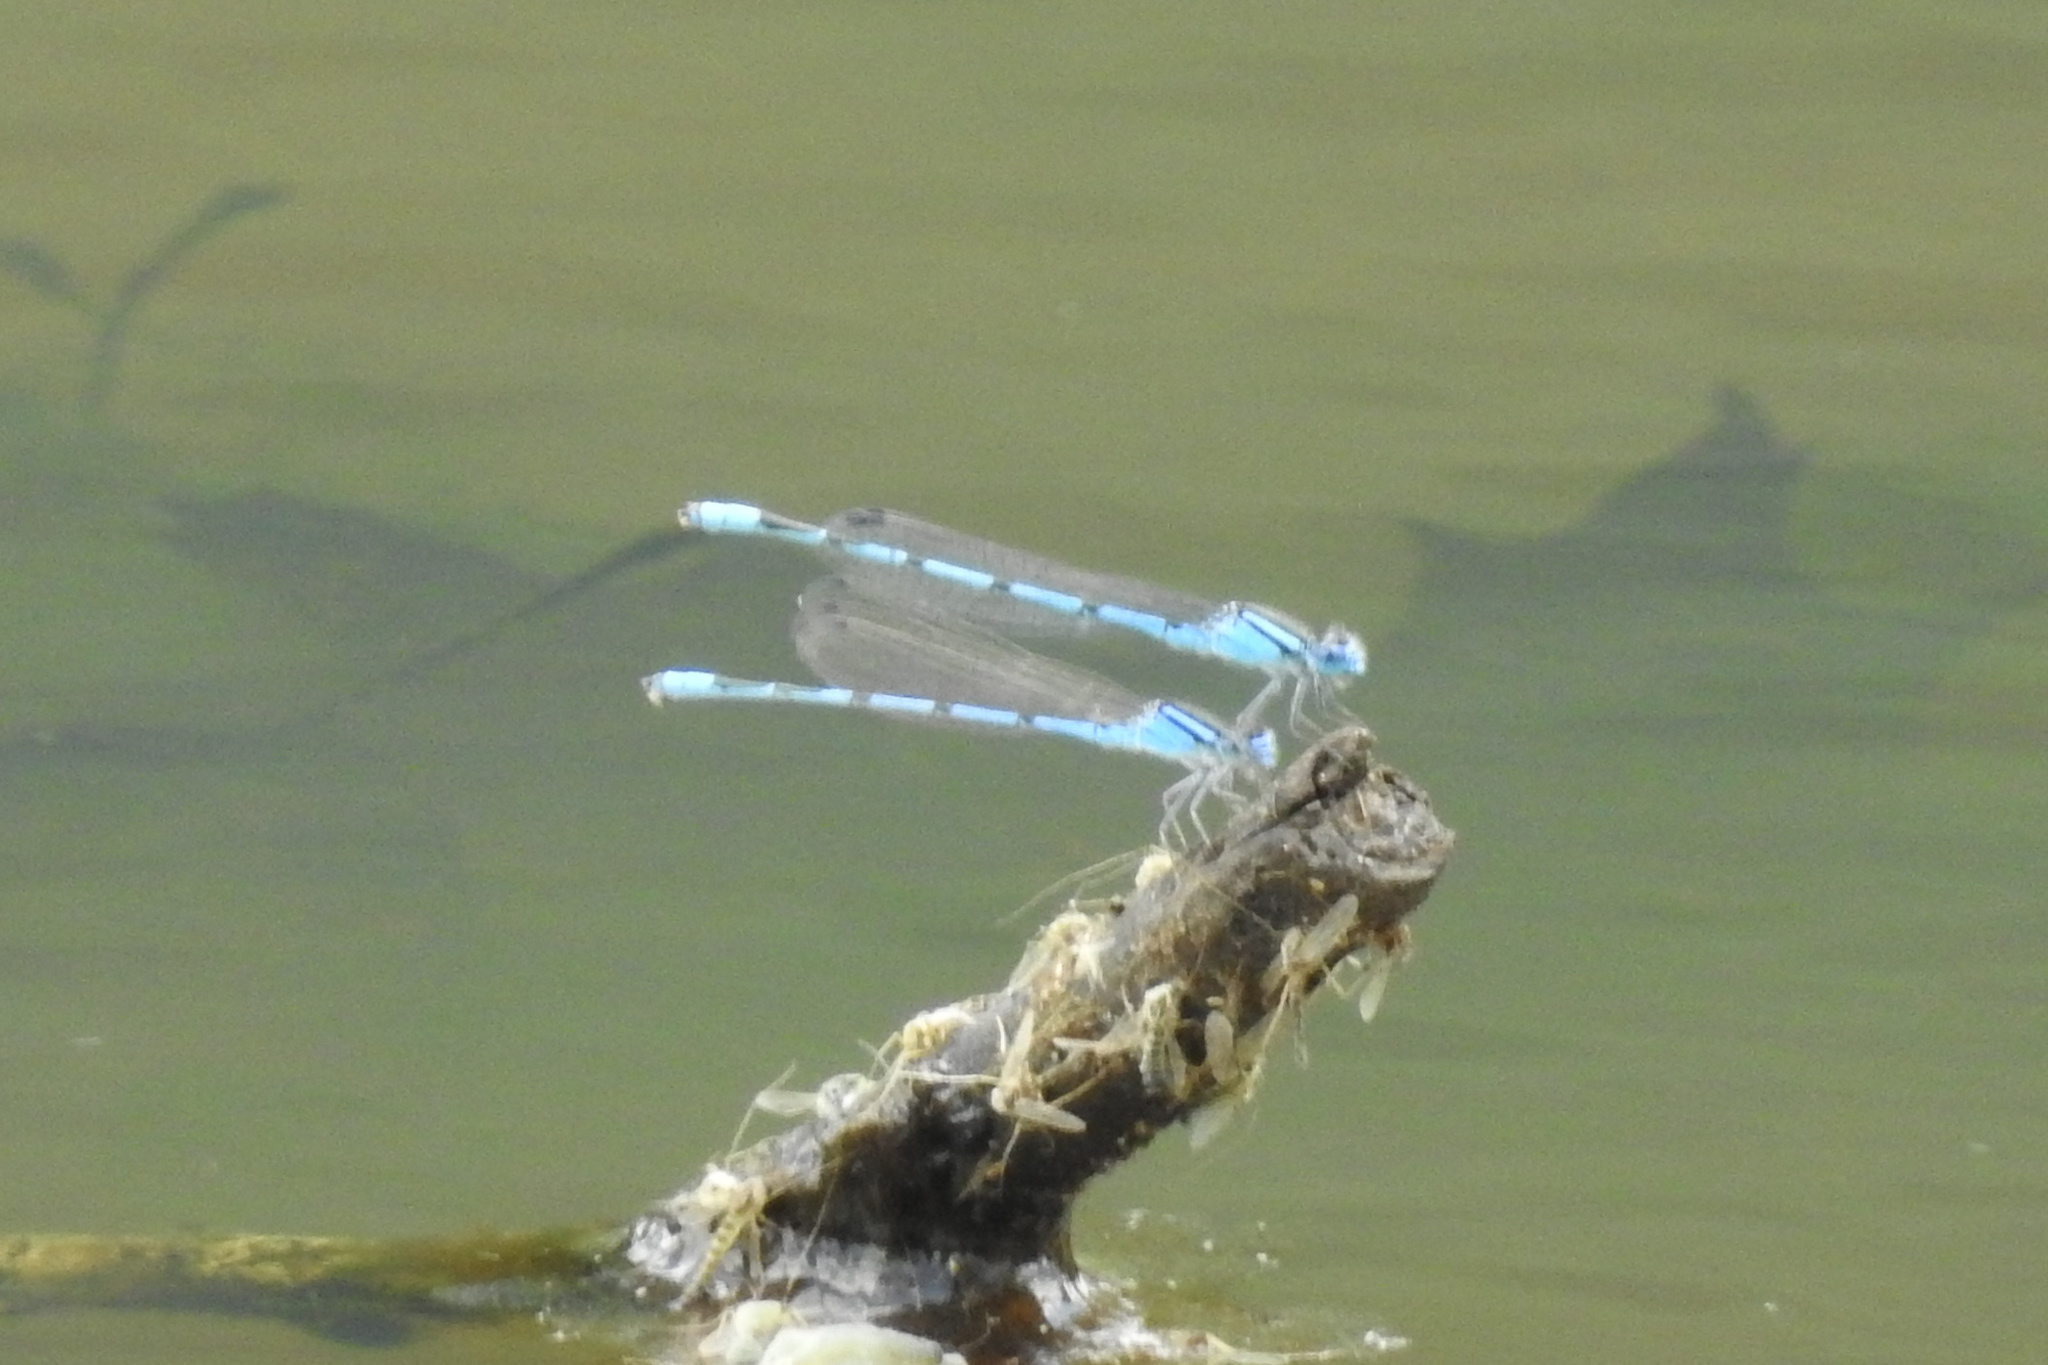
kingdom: Animalia
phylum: Arthropoda
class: Insecta
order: Odonata
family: Coenagrionidae
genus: Enallagma
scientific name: Enallagma civile
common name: Damselfly
